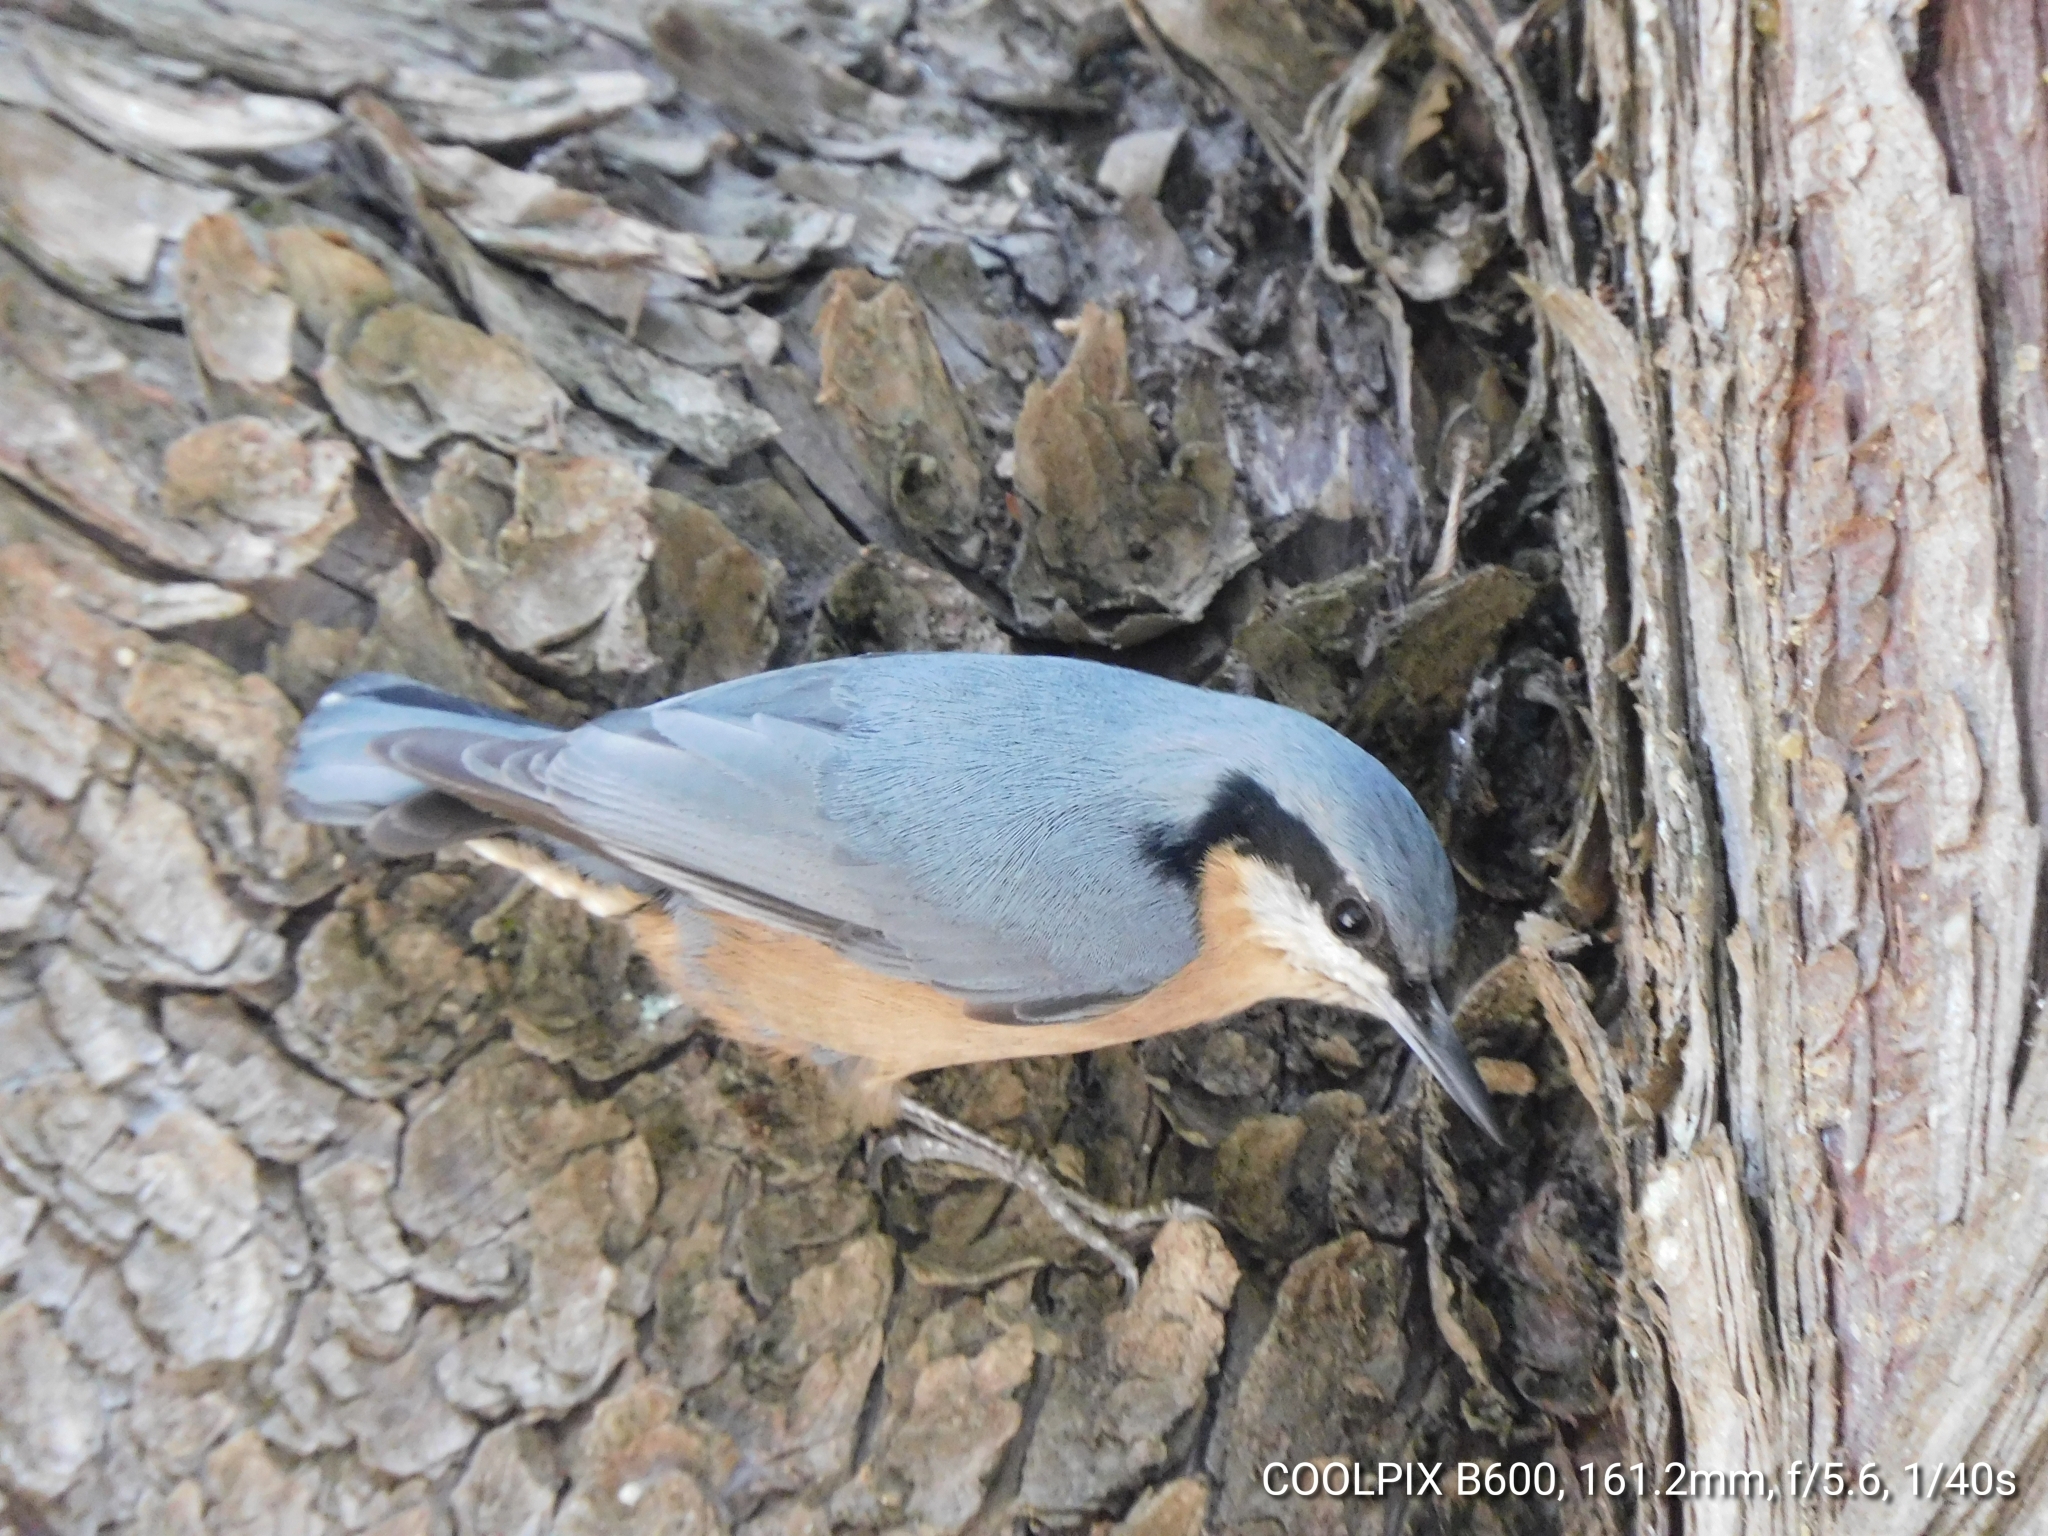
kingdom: Animalia
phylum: Chordata
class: Aves
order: Passeriformes
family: Sittidae
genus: Sitta
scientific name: Sitta himalayensis
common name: White-tailed nuthatch
